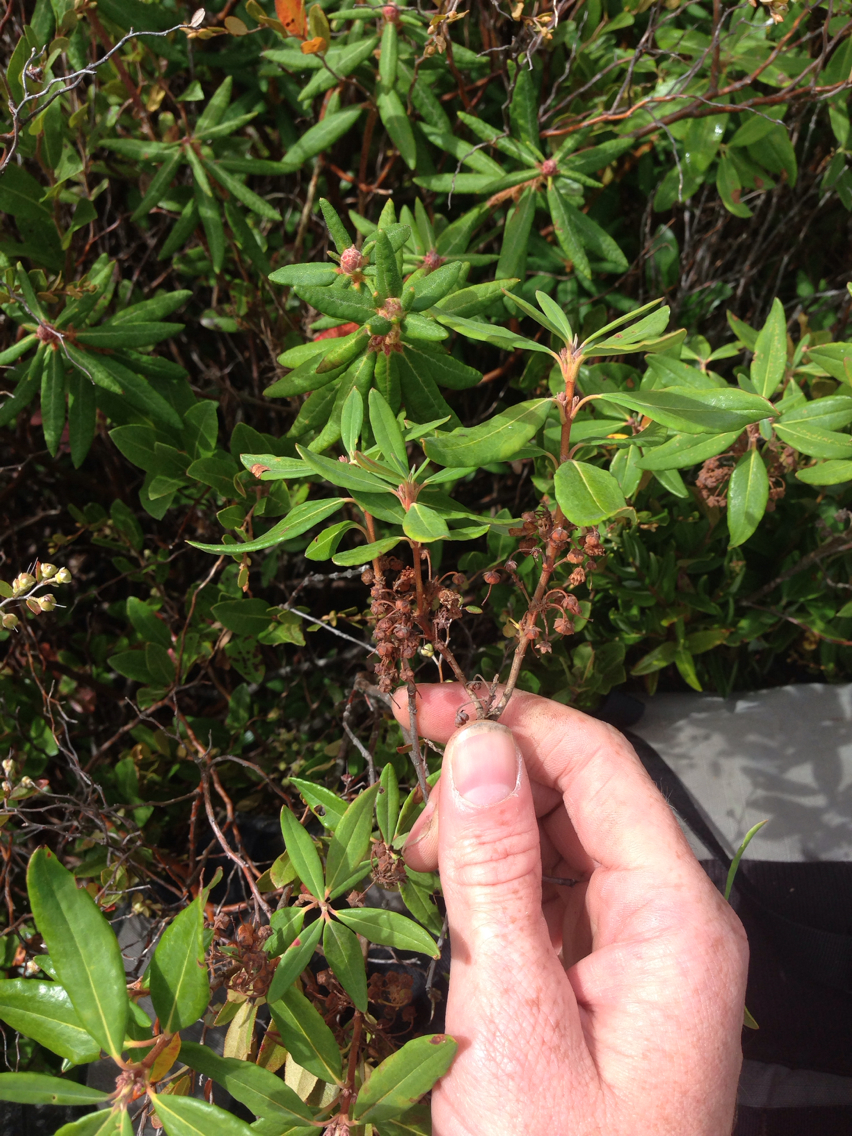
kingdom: Plantae
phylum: Tracheophyta
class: Magnoliopsida
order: Ericales
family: Ericaceae
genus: Kalmia
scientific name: Kalmia angustifolia
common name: Sheep-laurel
